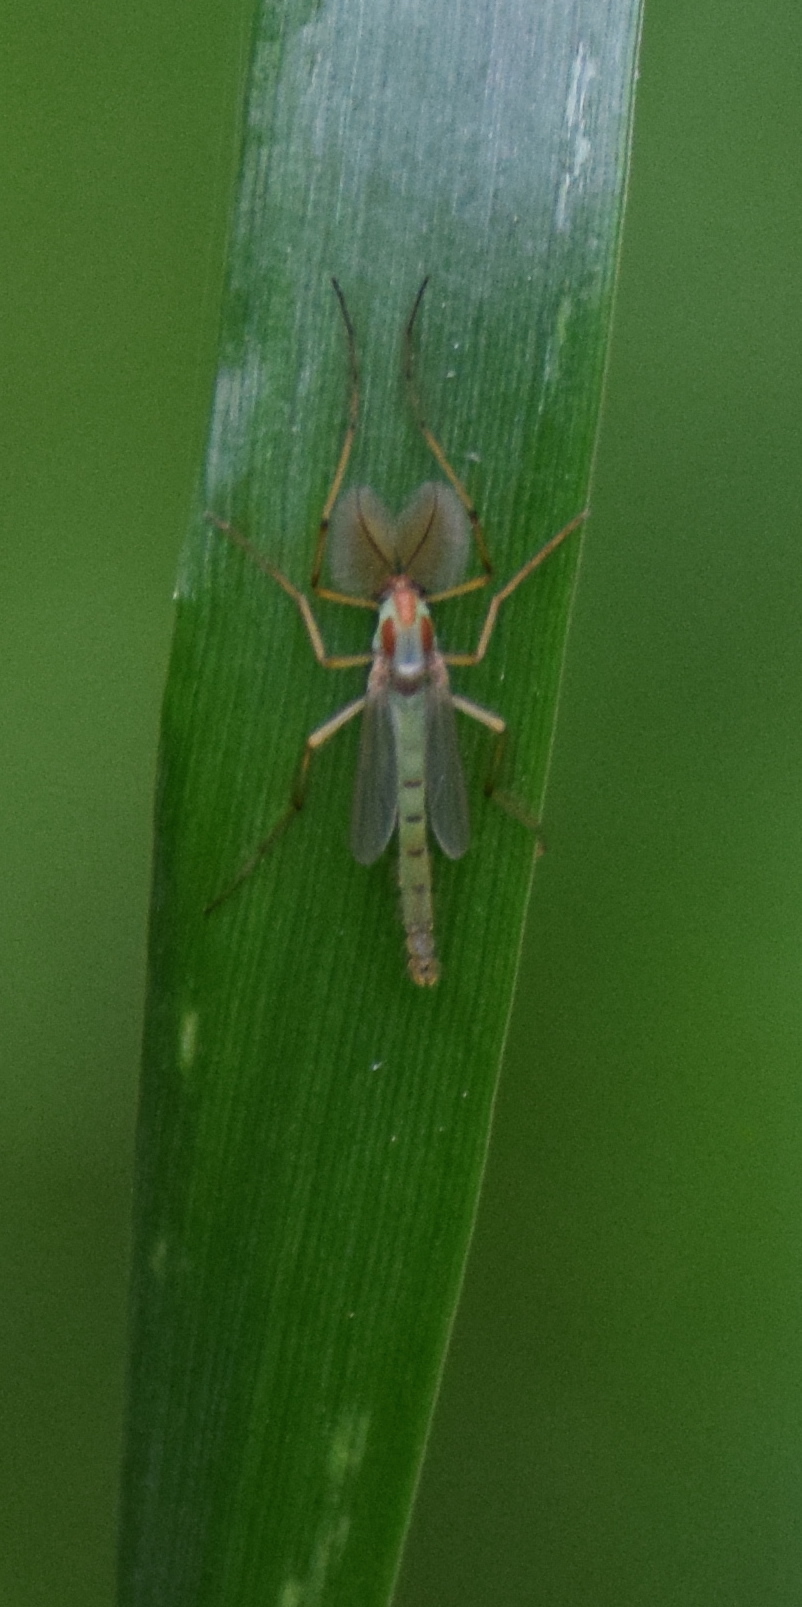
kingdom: Animalia
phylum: Arthropoda
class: Insecta
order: Diptera
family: Chironomidae
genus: Axarus
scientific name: Axarus
